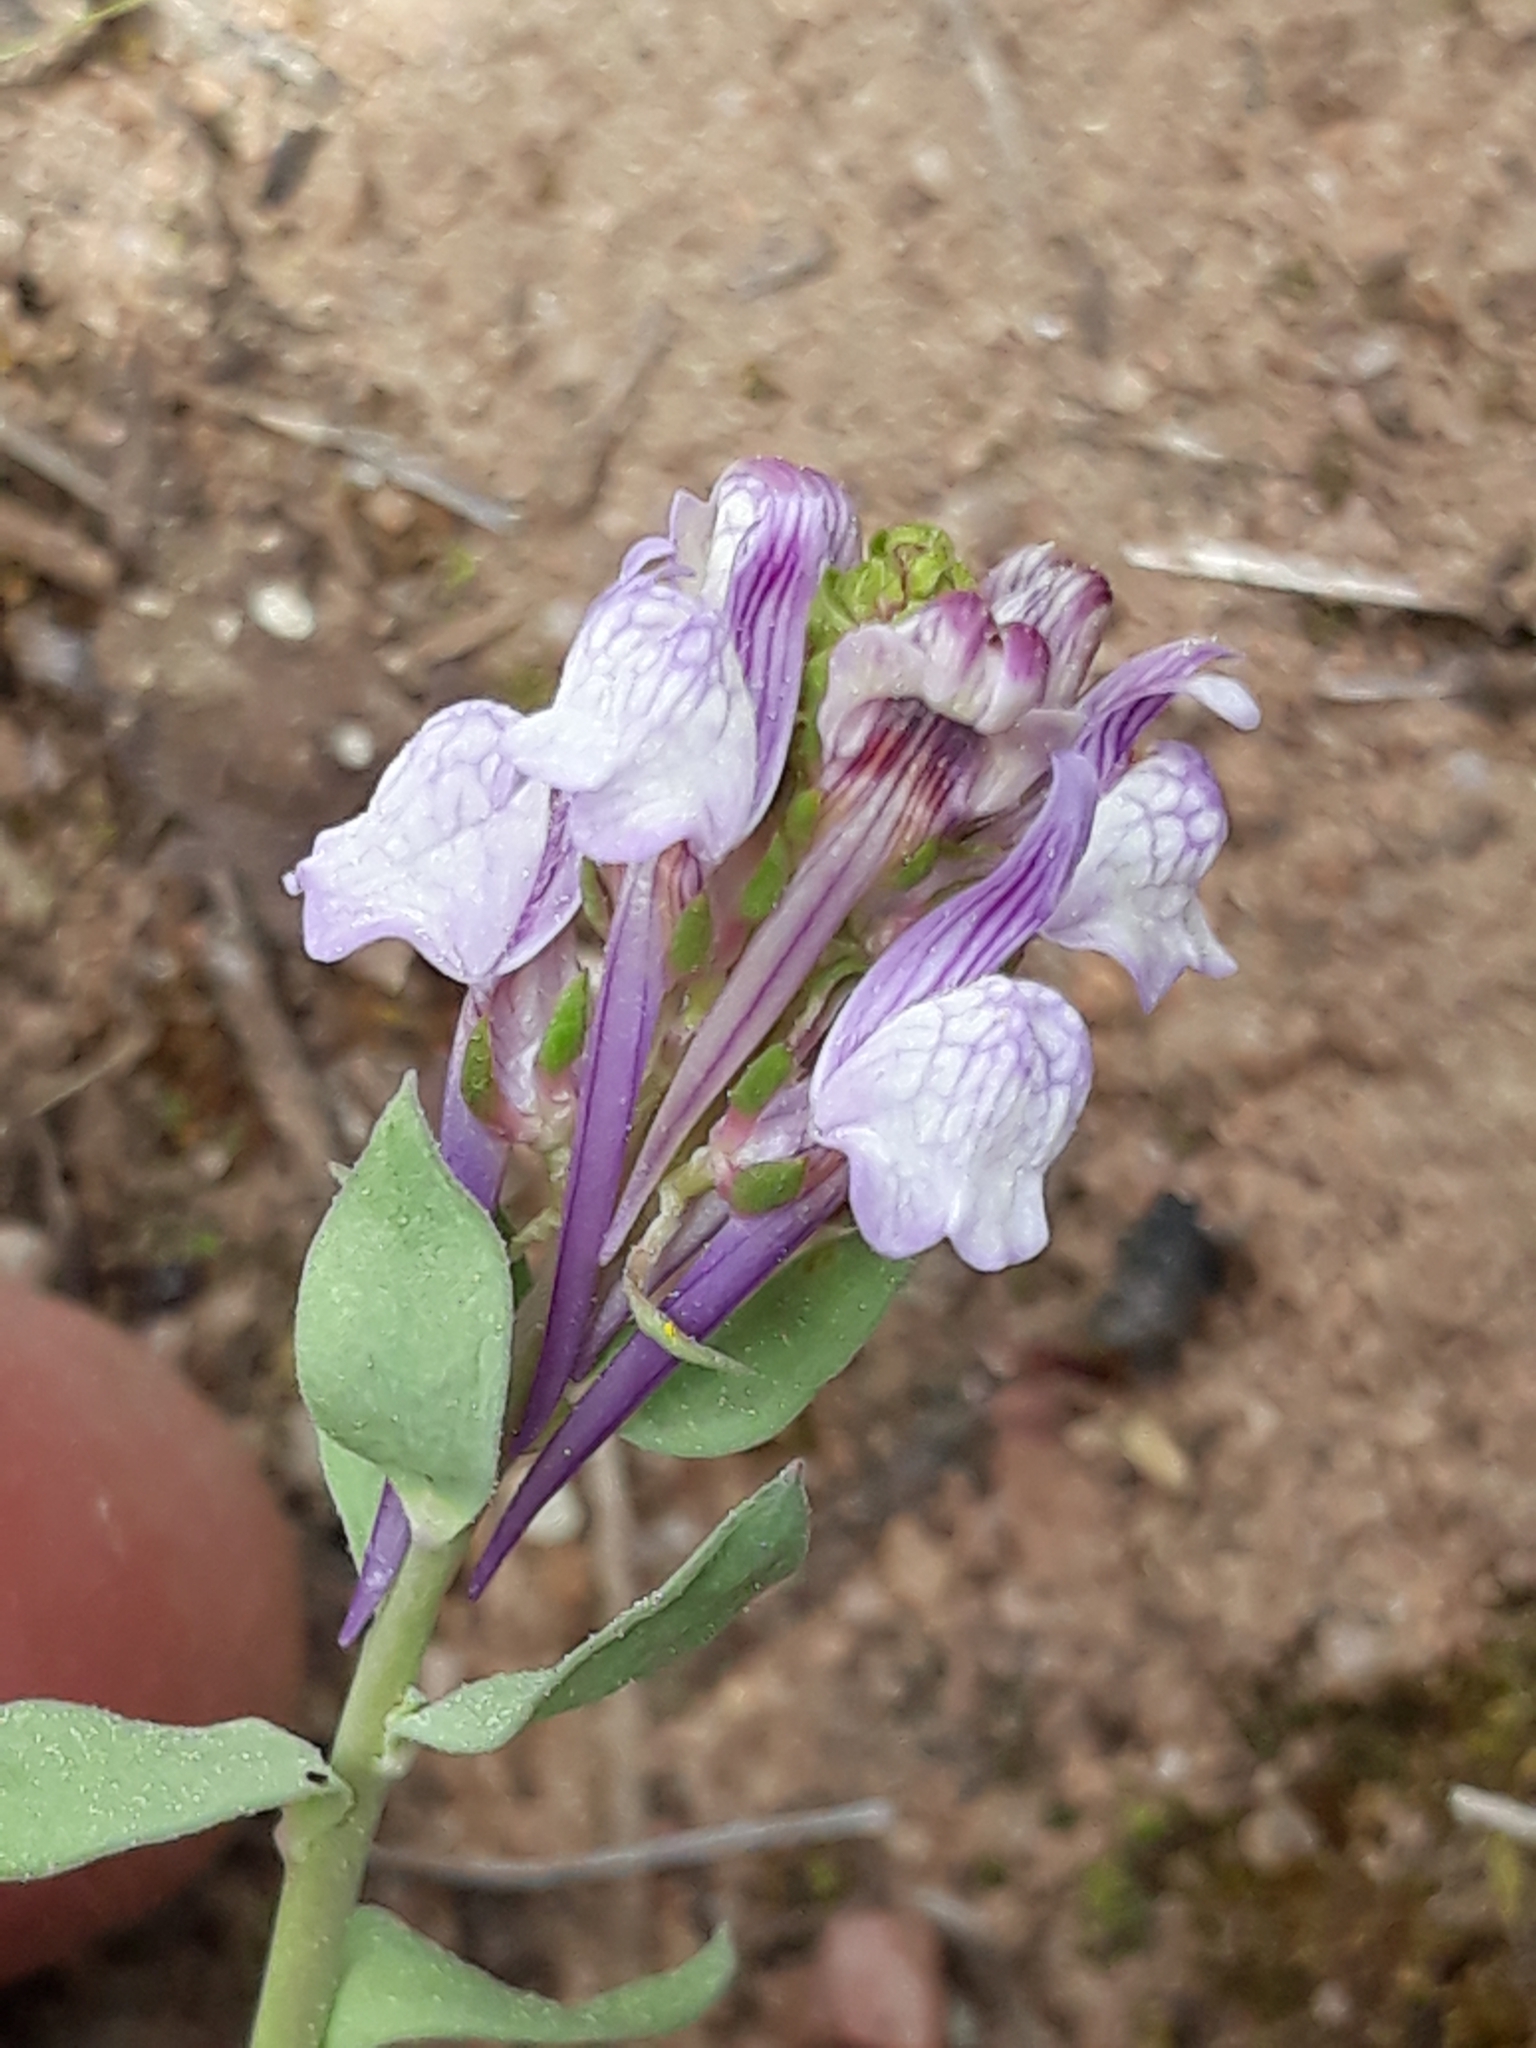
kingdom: Plantae
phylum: Tracheophyta
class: Magnoliopsida
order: Lamiales
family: Plantaginaceae
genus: Linaria
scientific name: Linaria virgata
